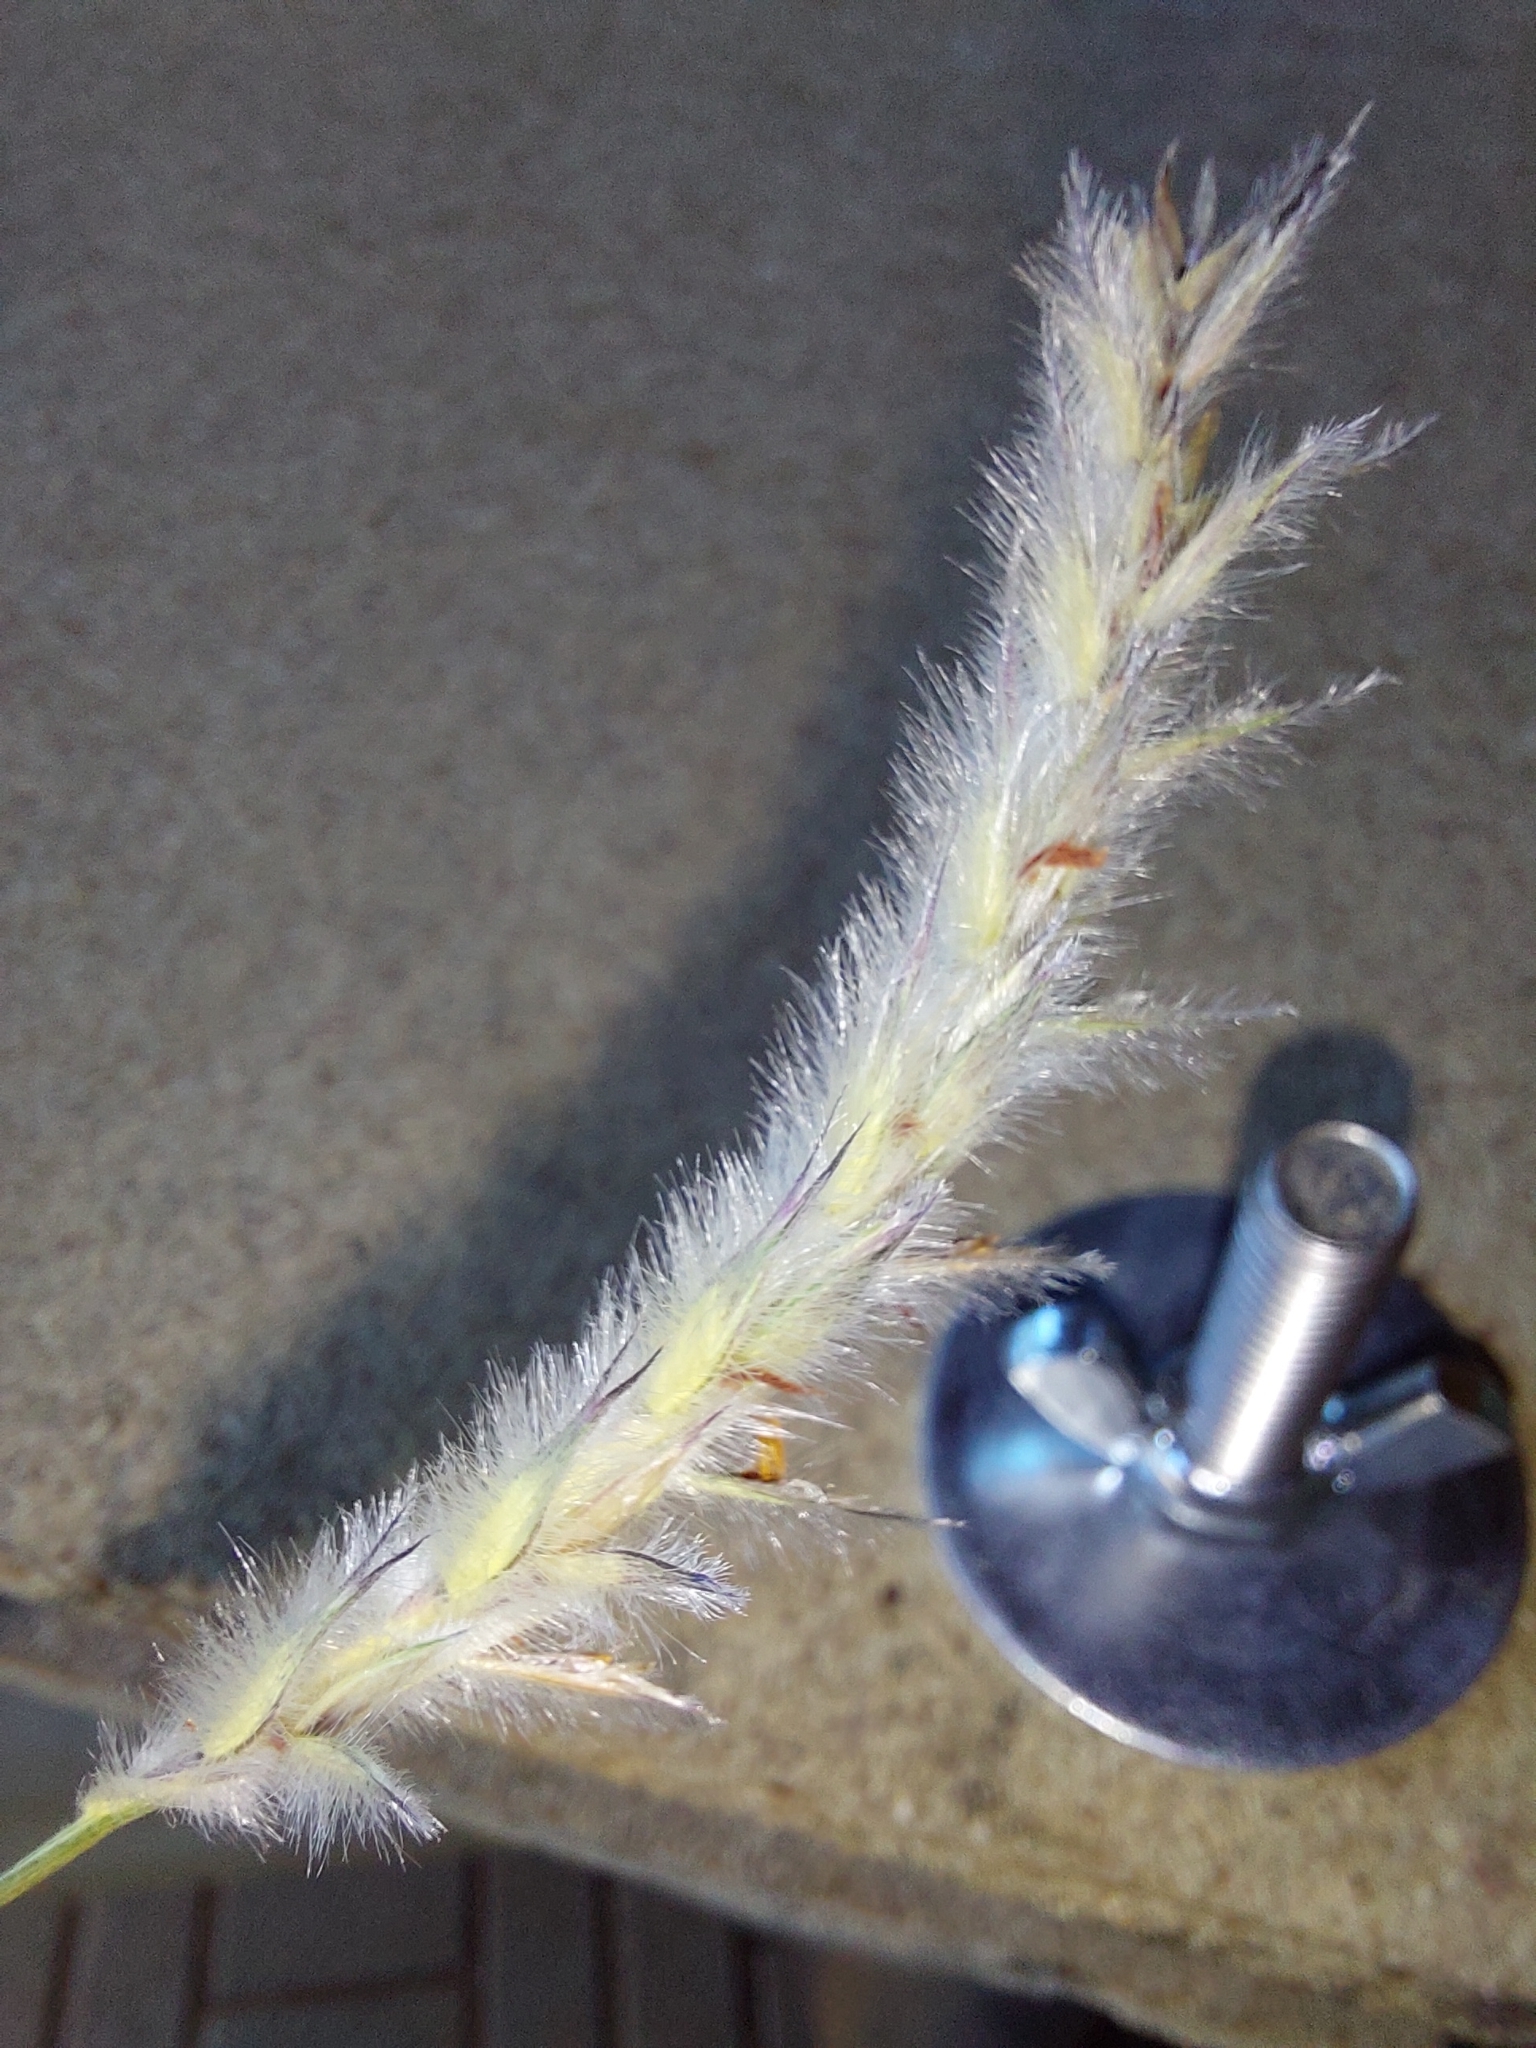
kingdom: Plantae
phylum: Tracheophyta
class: Liliopsida
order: Poales
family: Poaceae
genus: Imperata
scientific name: Imperata cylindrica
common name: Cogongrass
